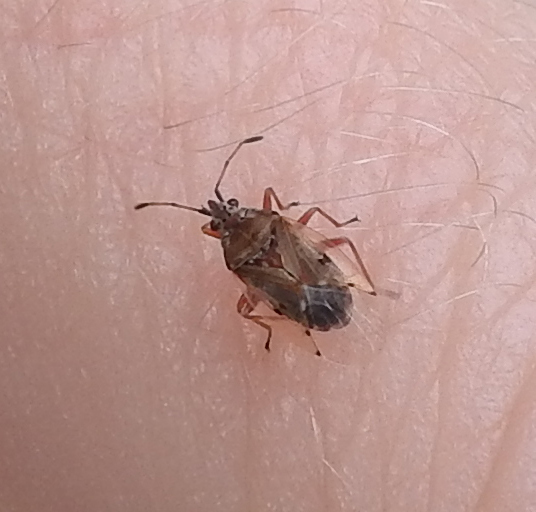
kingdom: Animalia
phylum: Arthropoda
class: Insecta
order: Hemiptera
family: Lygaeidae
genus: Kleidocerys
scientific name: Kleidocerys resedae
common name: Birch catkin bug
